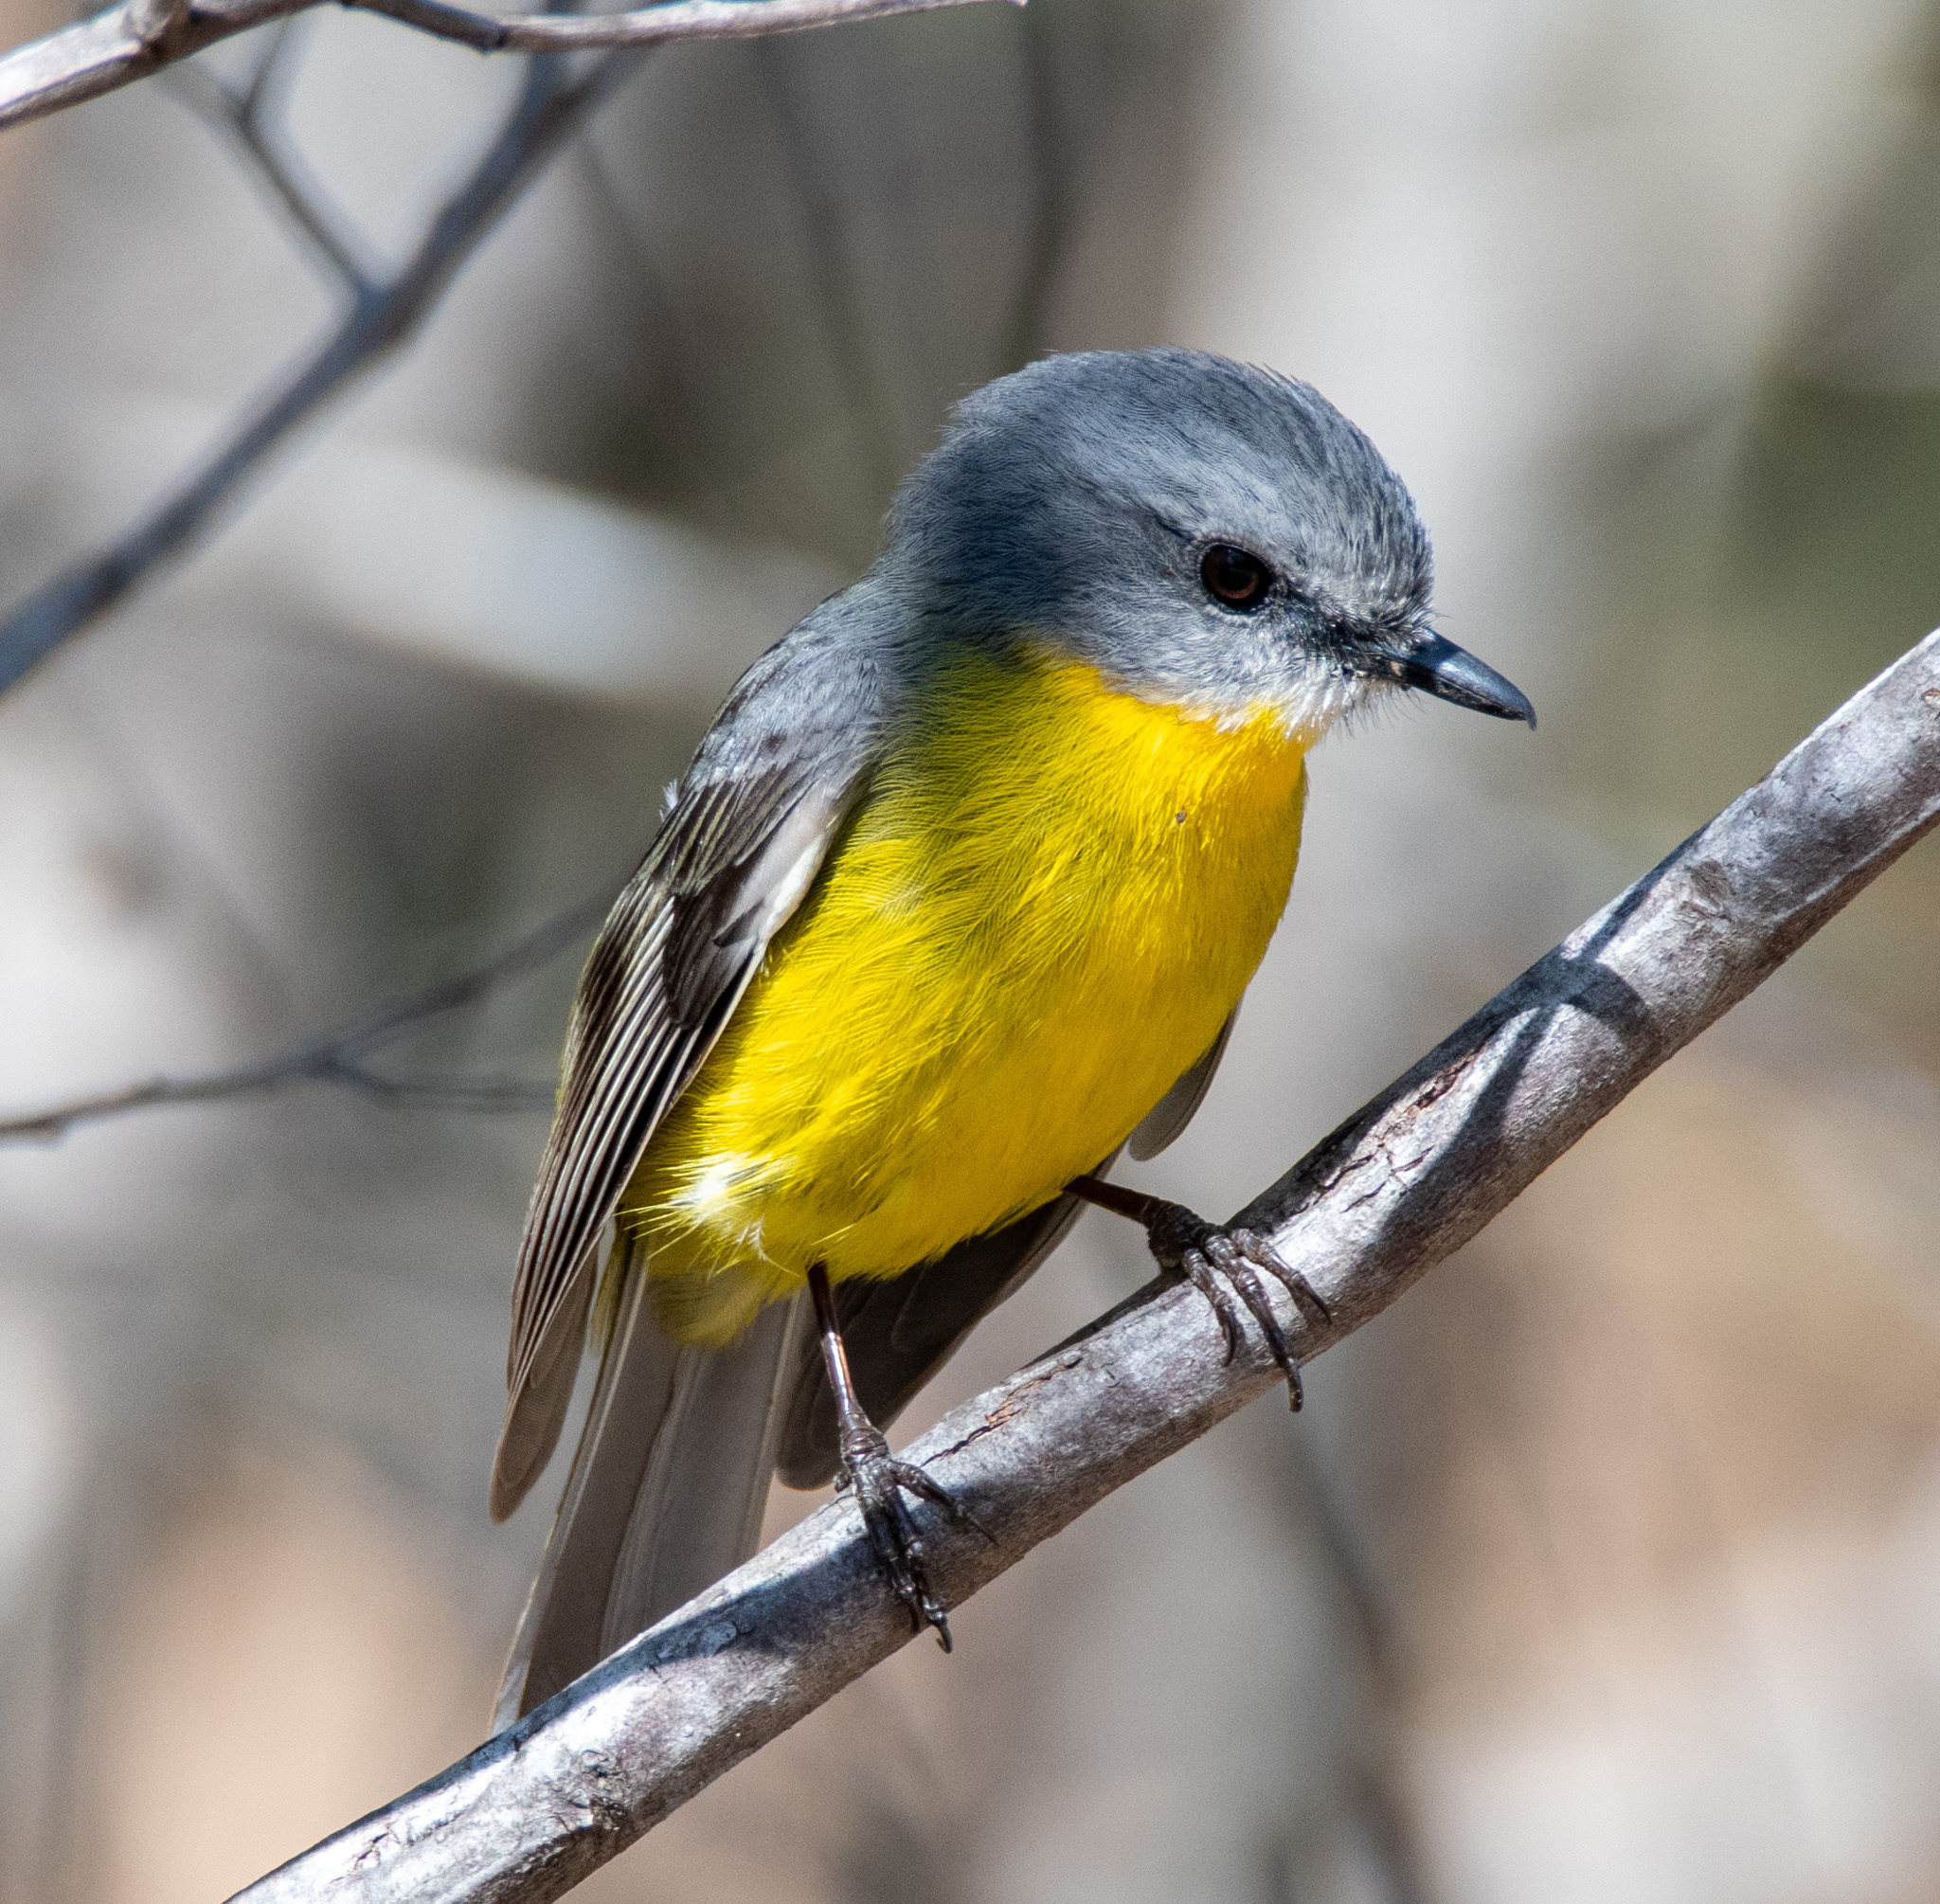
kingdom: Animalia
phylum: Chordata
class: Aves
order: Passeriformes
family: Petroicidae
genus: Eopsaltria
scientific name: Eopsaltria australis
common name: Eastern yellow robin
